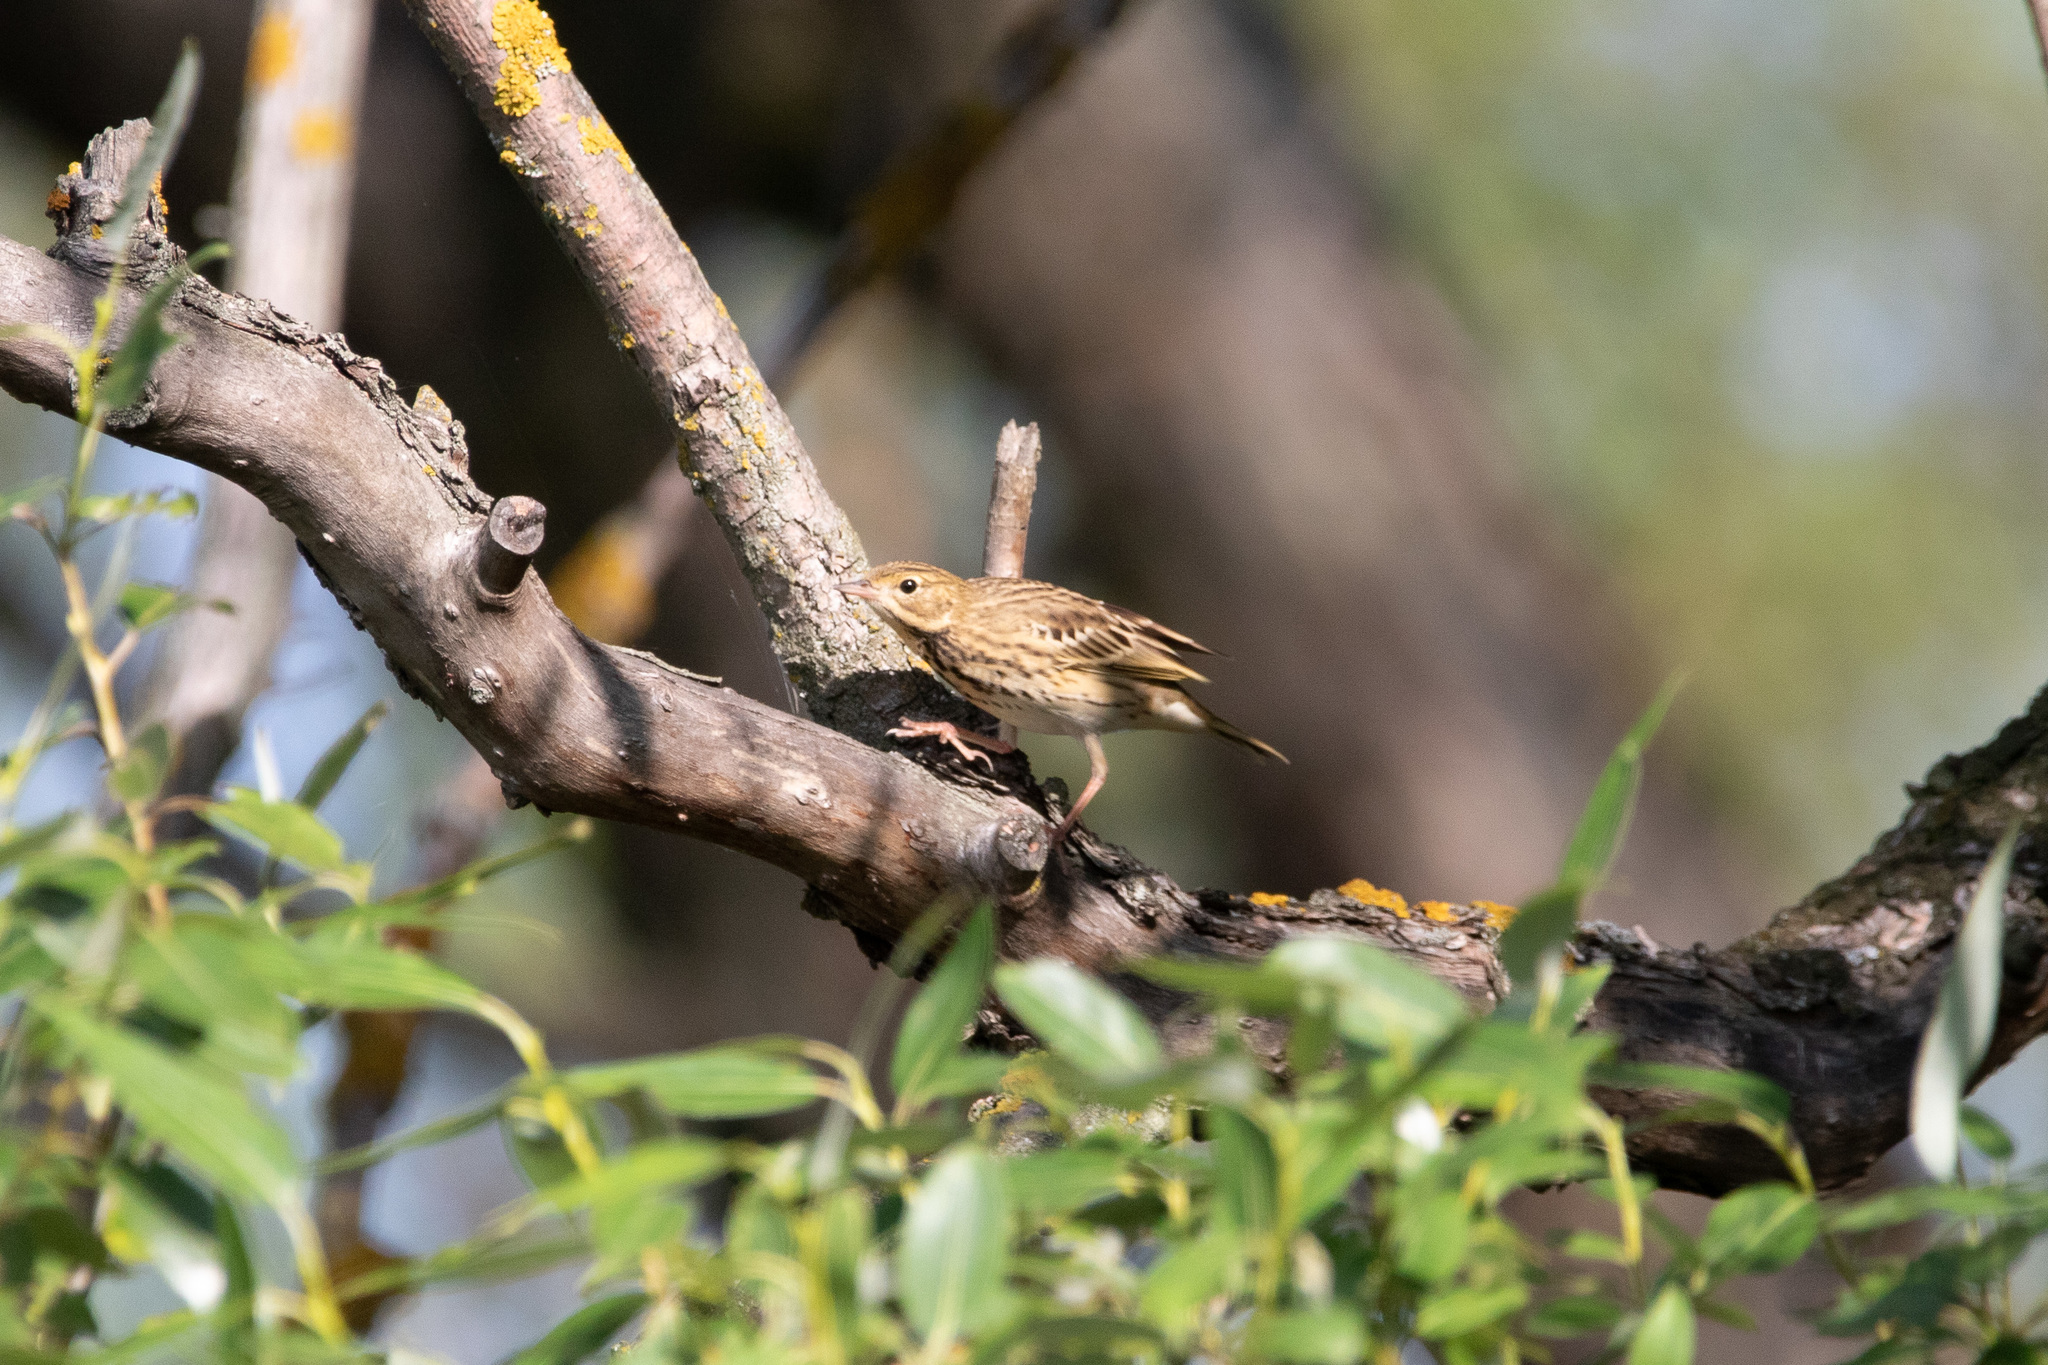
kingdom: Animalia
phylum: Chordata
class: Aves
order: Passeriformes
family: Motacillidae
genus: Anthus
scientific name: Anthus trivialis
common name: Tree pipit
